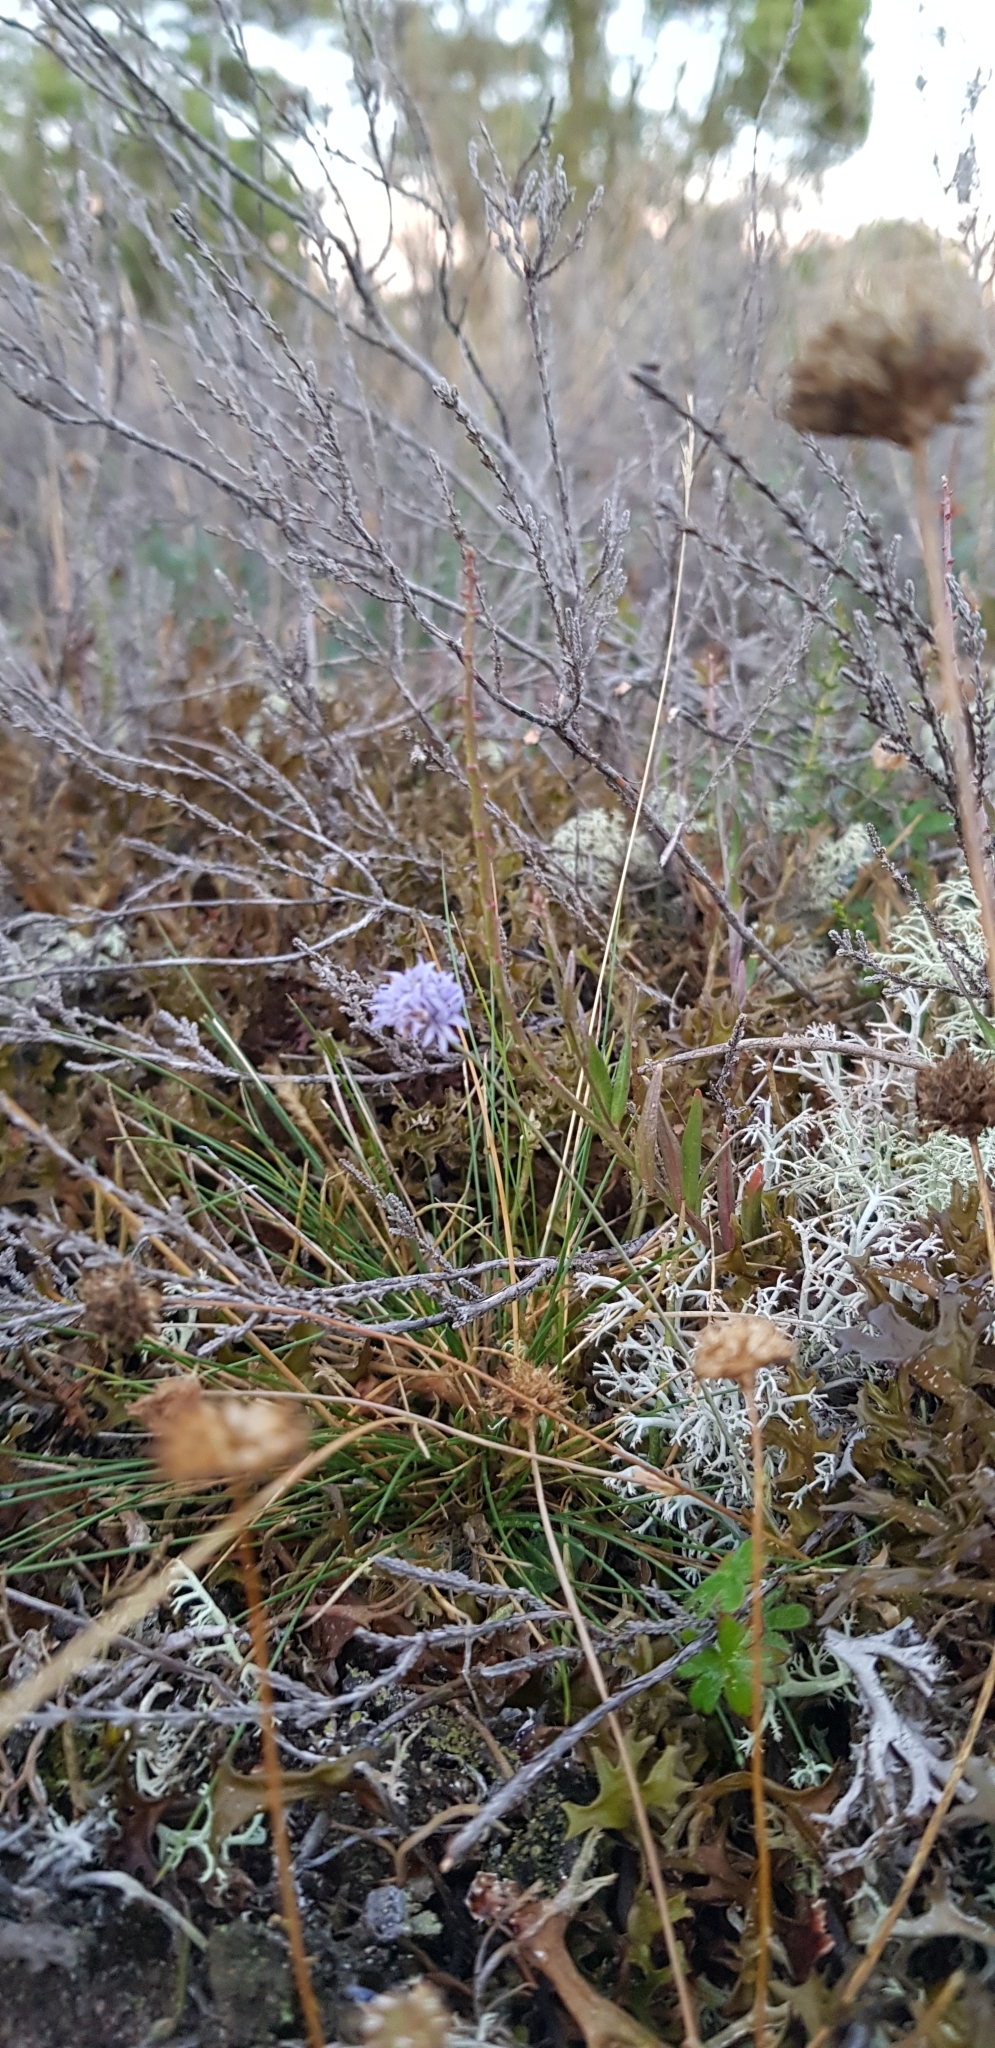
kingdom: Plantae
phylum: Tracheophyta
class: Magnoliopsida
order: Asterales
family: Campanulaceae
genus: Jasione
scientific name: Jasione montana
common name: Sheep's-bit
